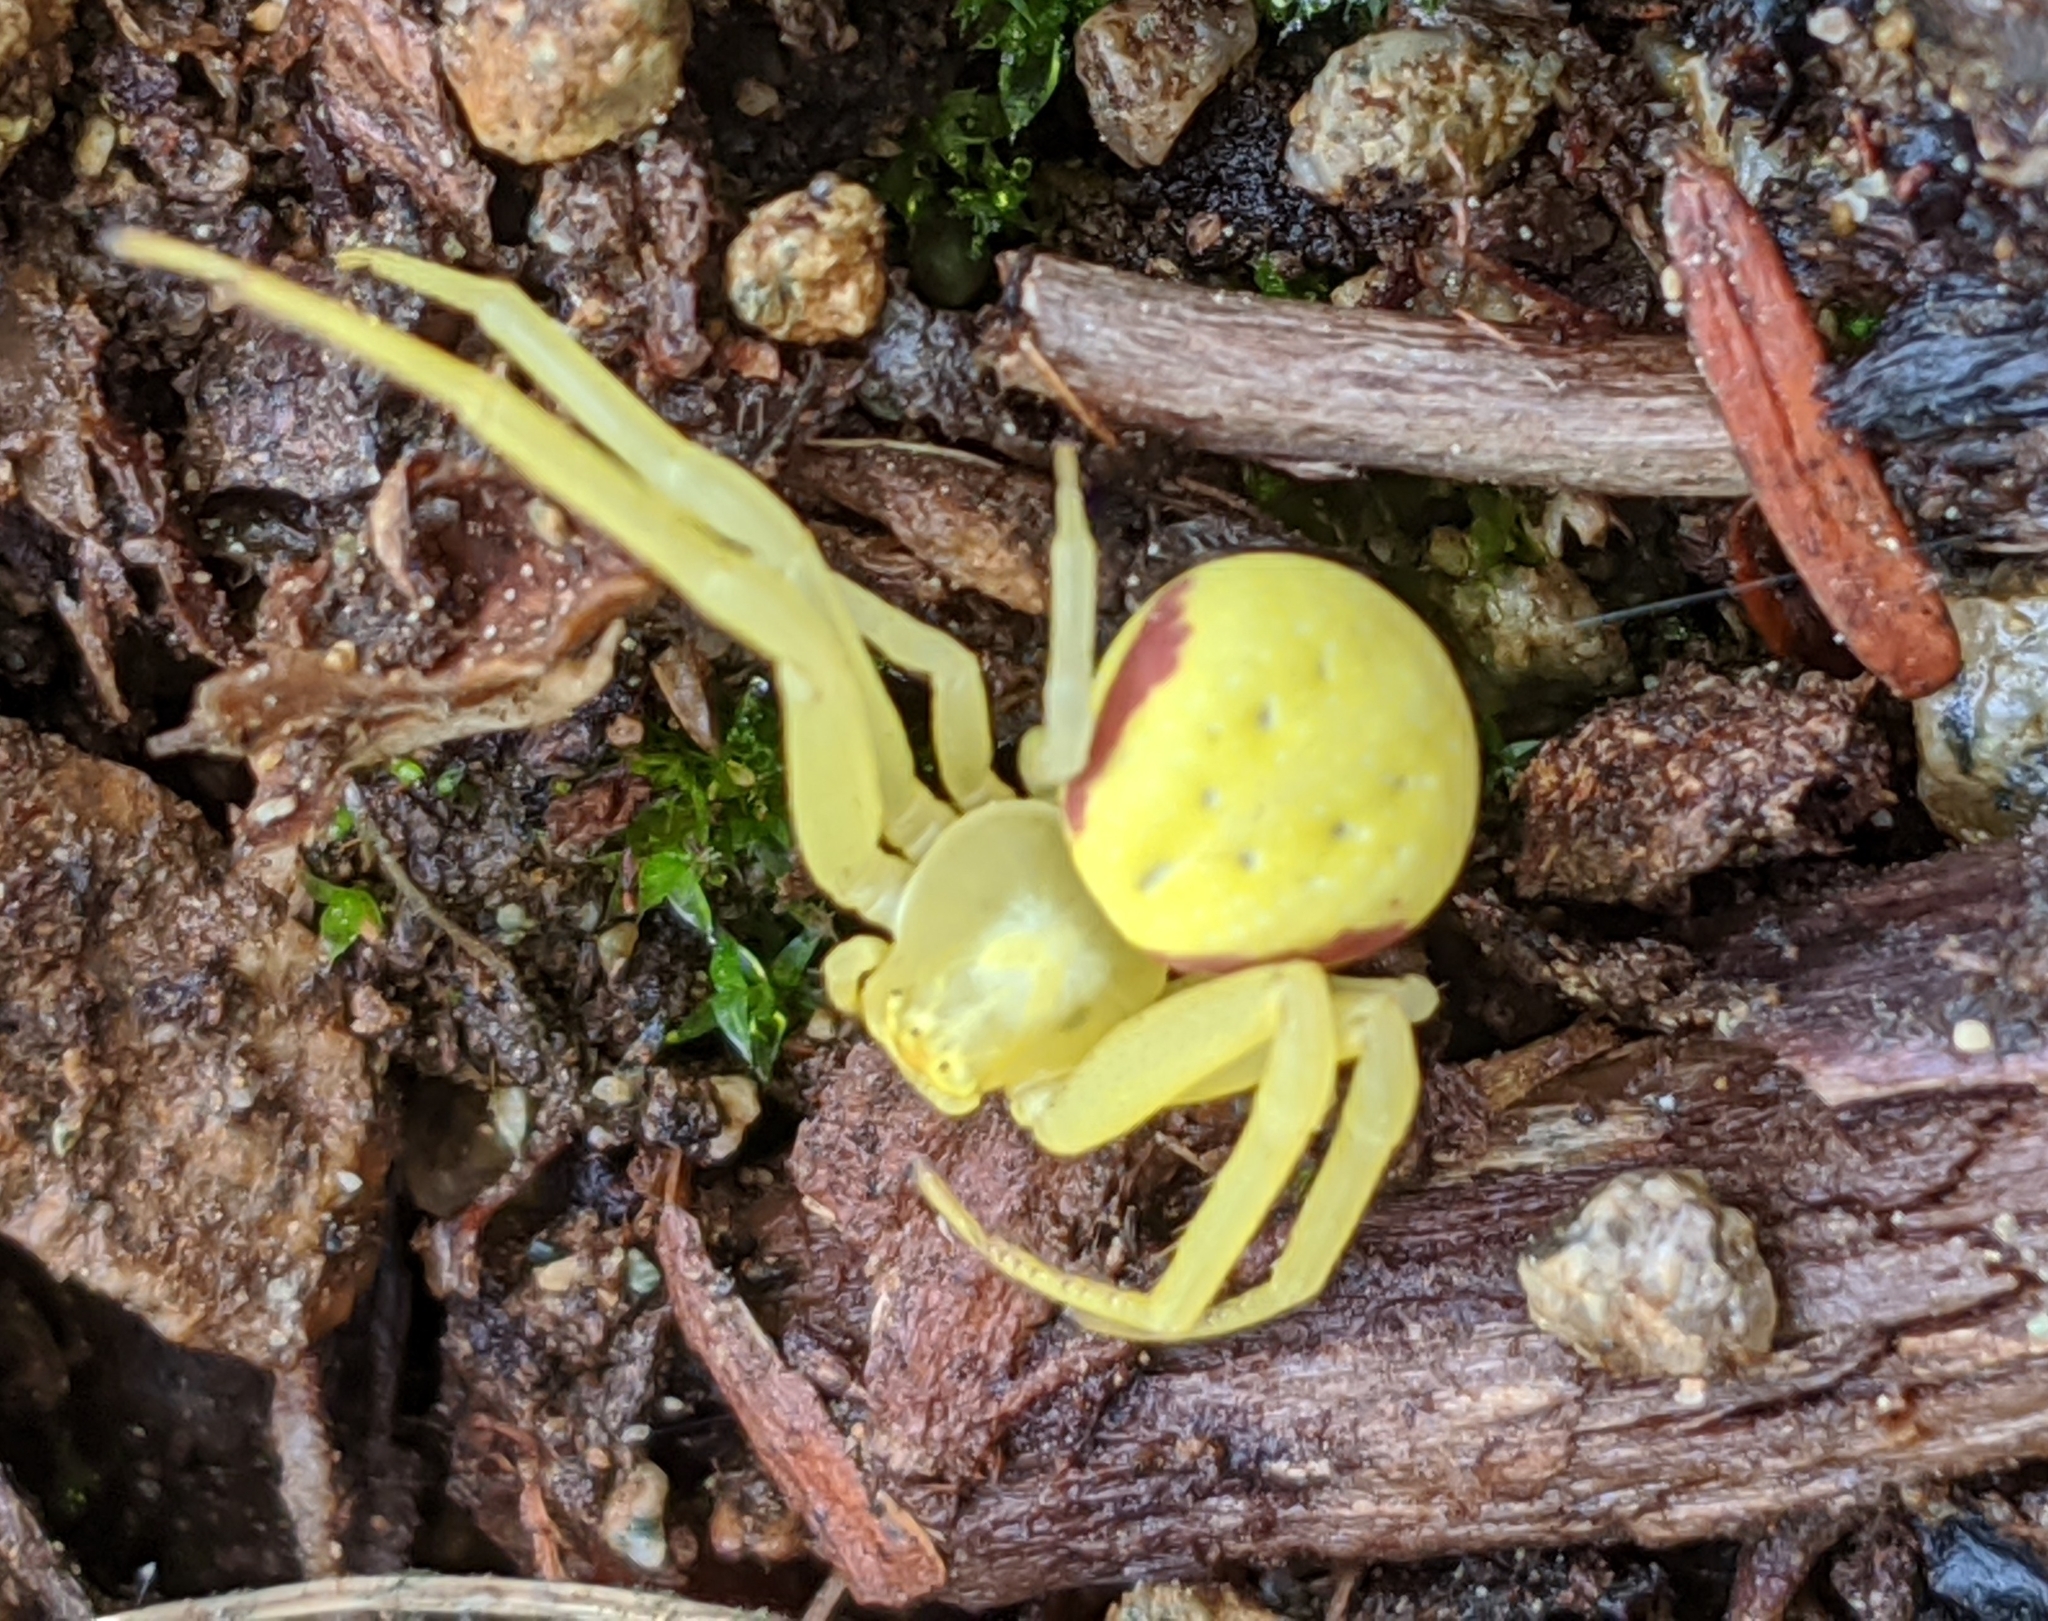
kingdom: Animalia
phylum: Arthropoda
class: Arachnida
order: Araneae
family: Thomisidae
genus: Misumena
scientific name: Misumena vatia
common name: Goldenrod crab spider
